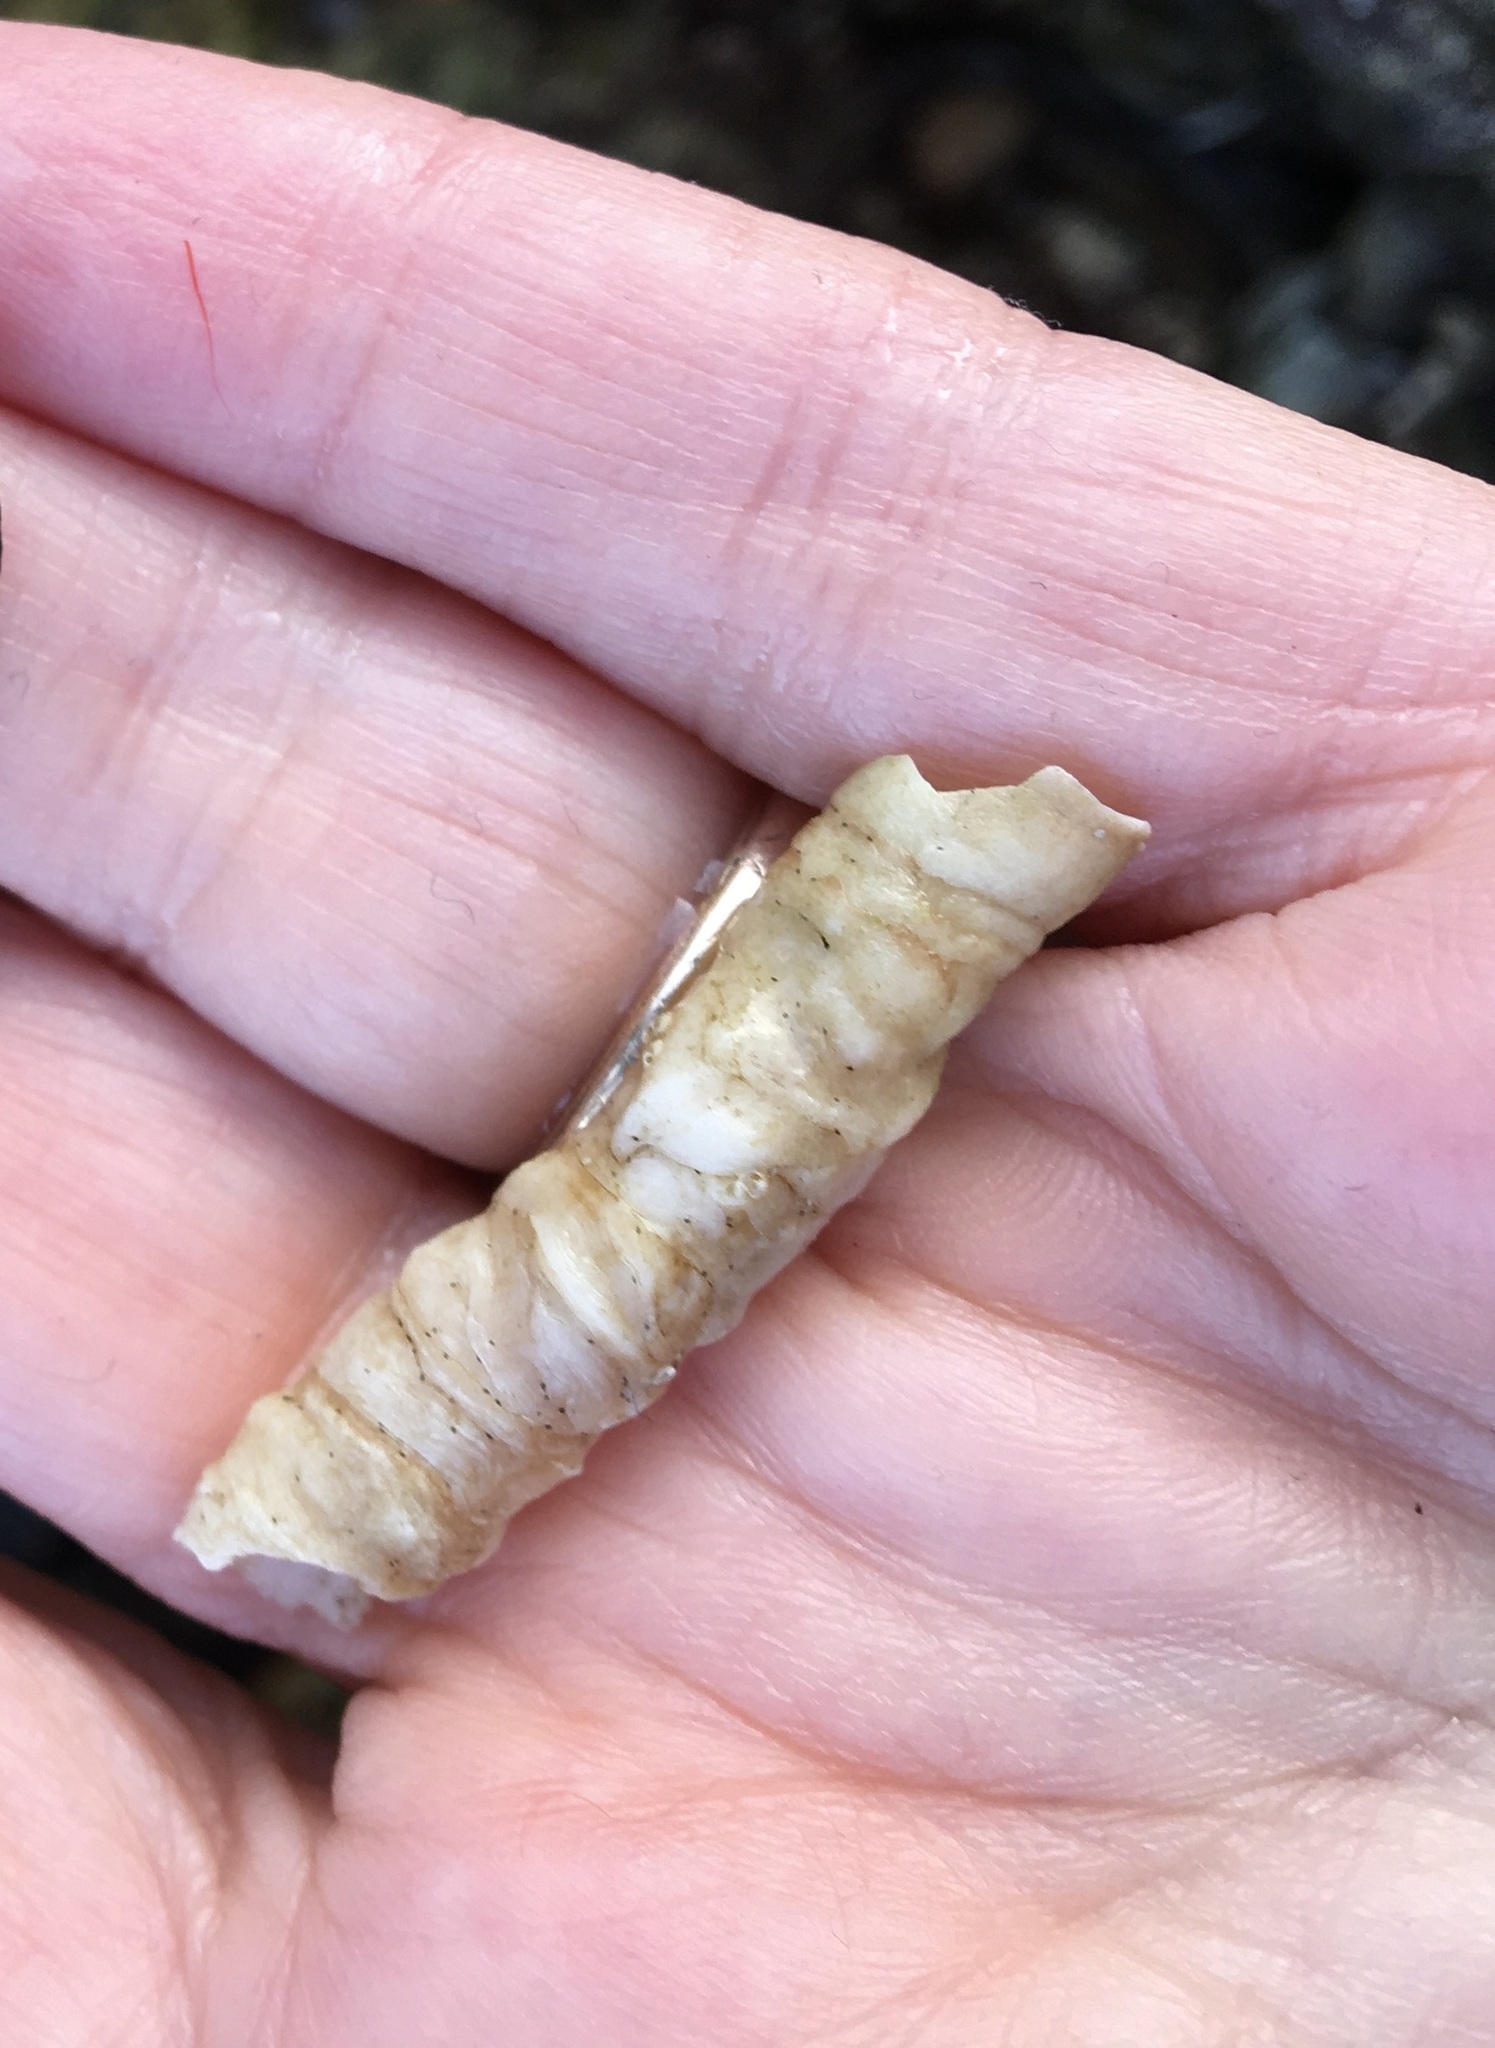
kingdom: Animalia
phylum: Mollusca
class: Gastropoda
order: Littorinimorpha
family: Vermetidae
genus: Thylacodes
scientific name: Thylacodes squamigerus
